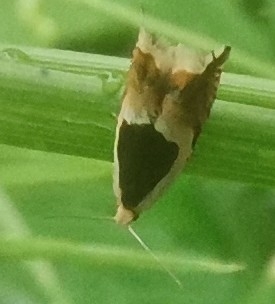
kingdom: Animalia
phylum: Arthropoda
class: Insecta
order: Lepidoptera
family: Tortricidae
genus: Ancylis
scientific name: Ancylis badiana
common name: Common roller
